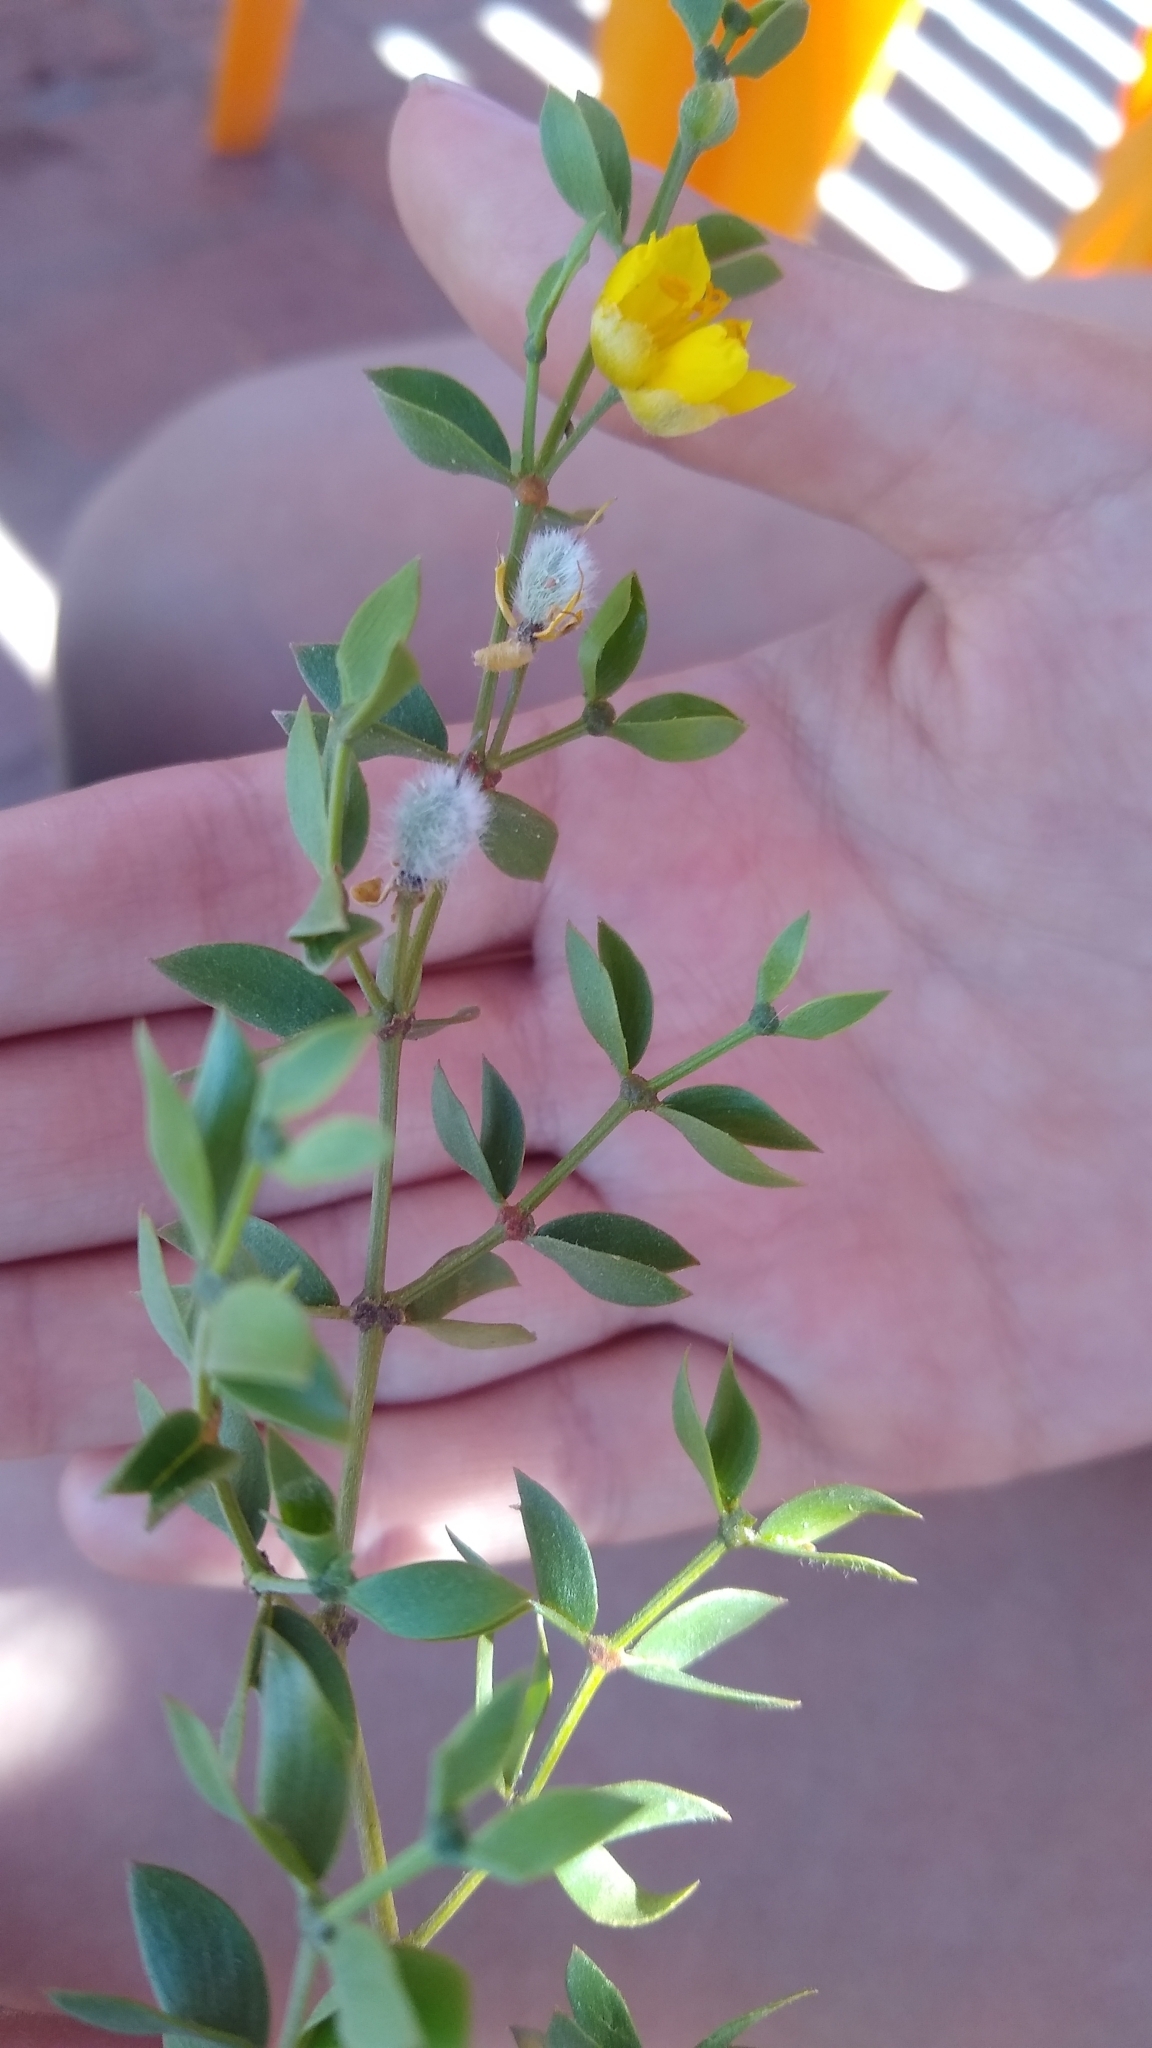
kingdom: Plantae
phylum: Tracheophyta
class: Magnoliopsida
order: Zygophyllales
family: Zygophyllaceae
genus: Larrea
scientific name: Larrea divaricata
